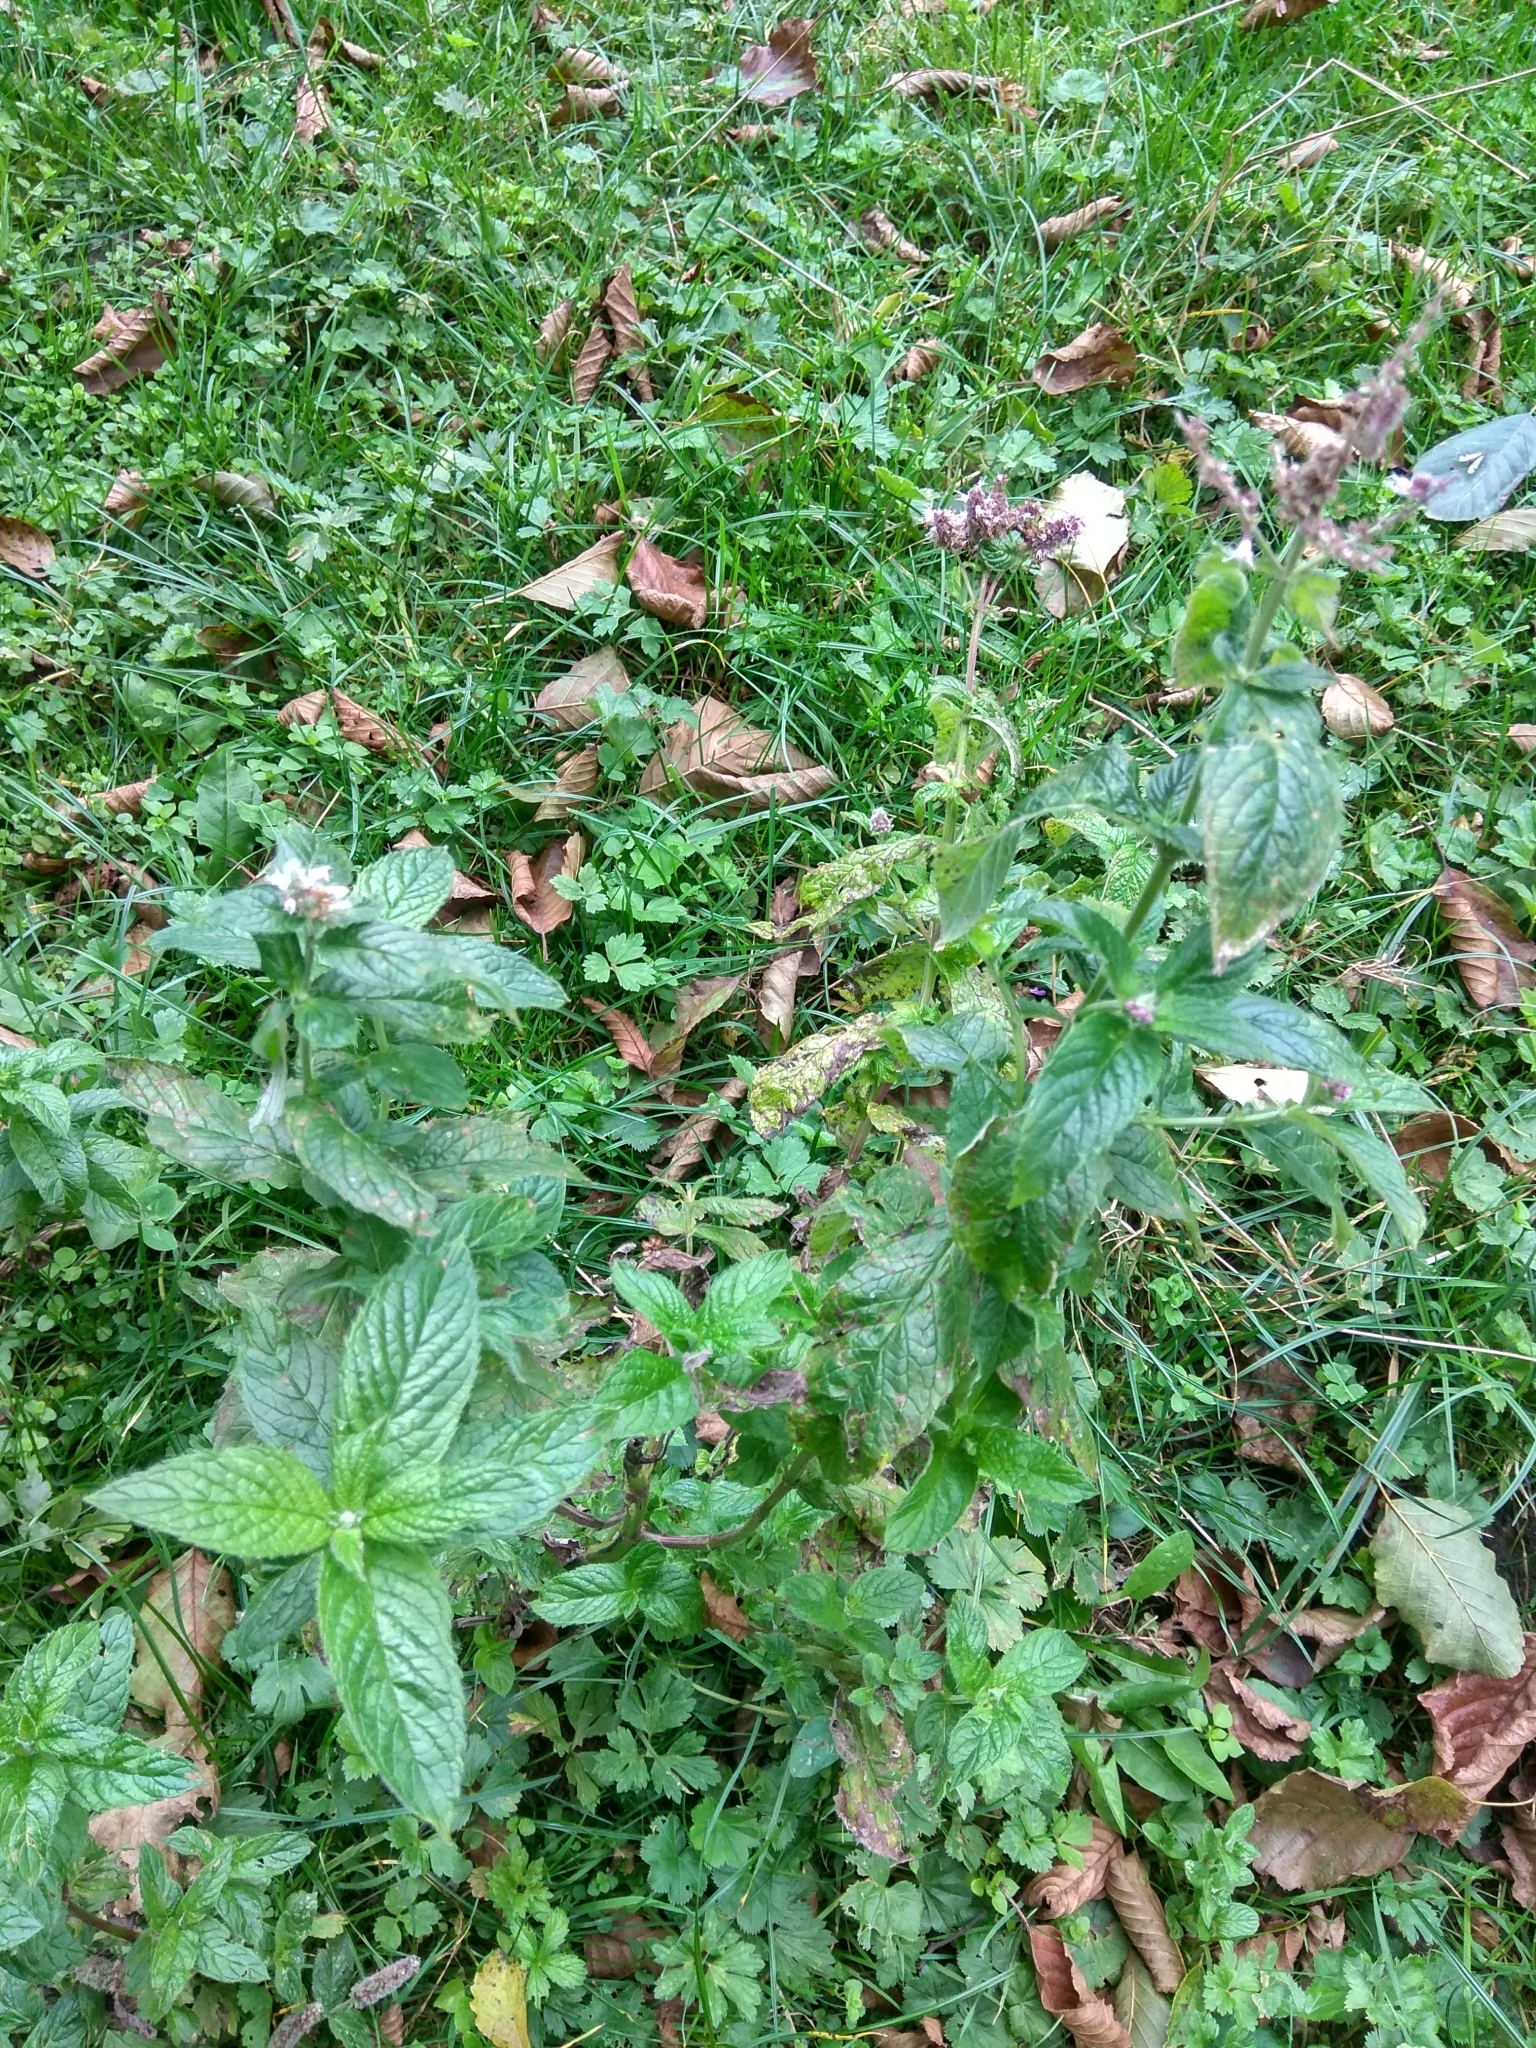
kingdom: Plantae
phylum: Tracheophyta
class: Magnoliopsida
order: Lamiales
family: Lamiaceae
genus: Mentha
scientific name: Mentha longifolia
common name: Horse mint
